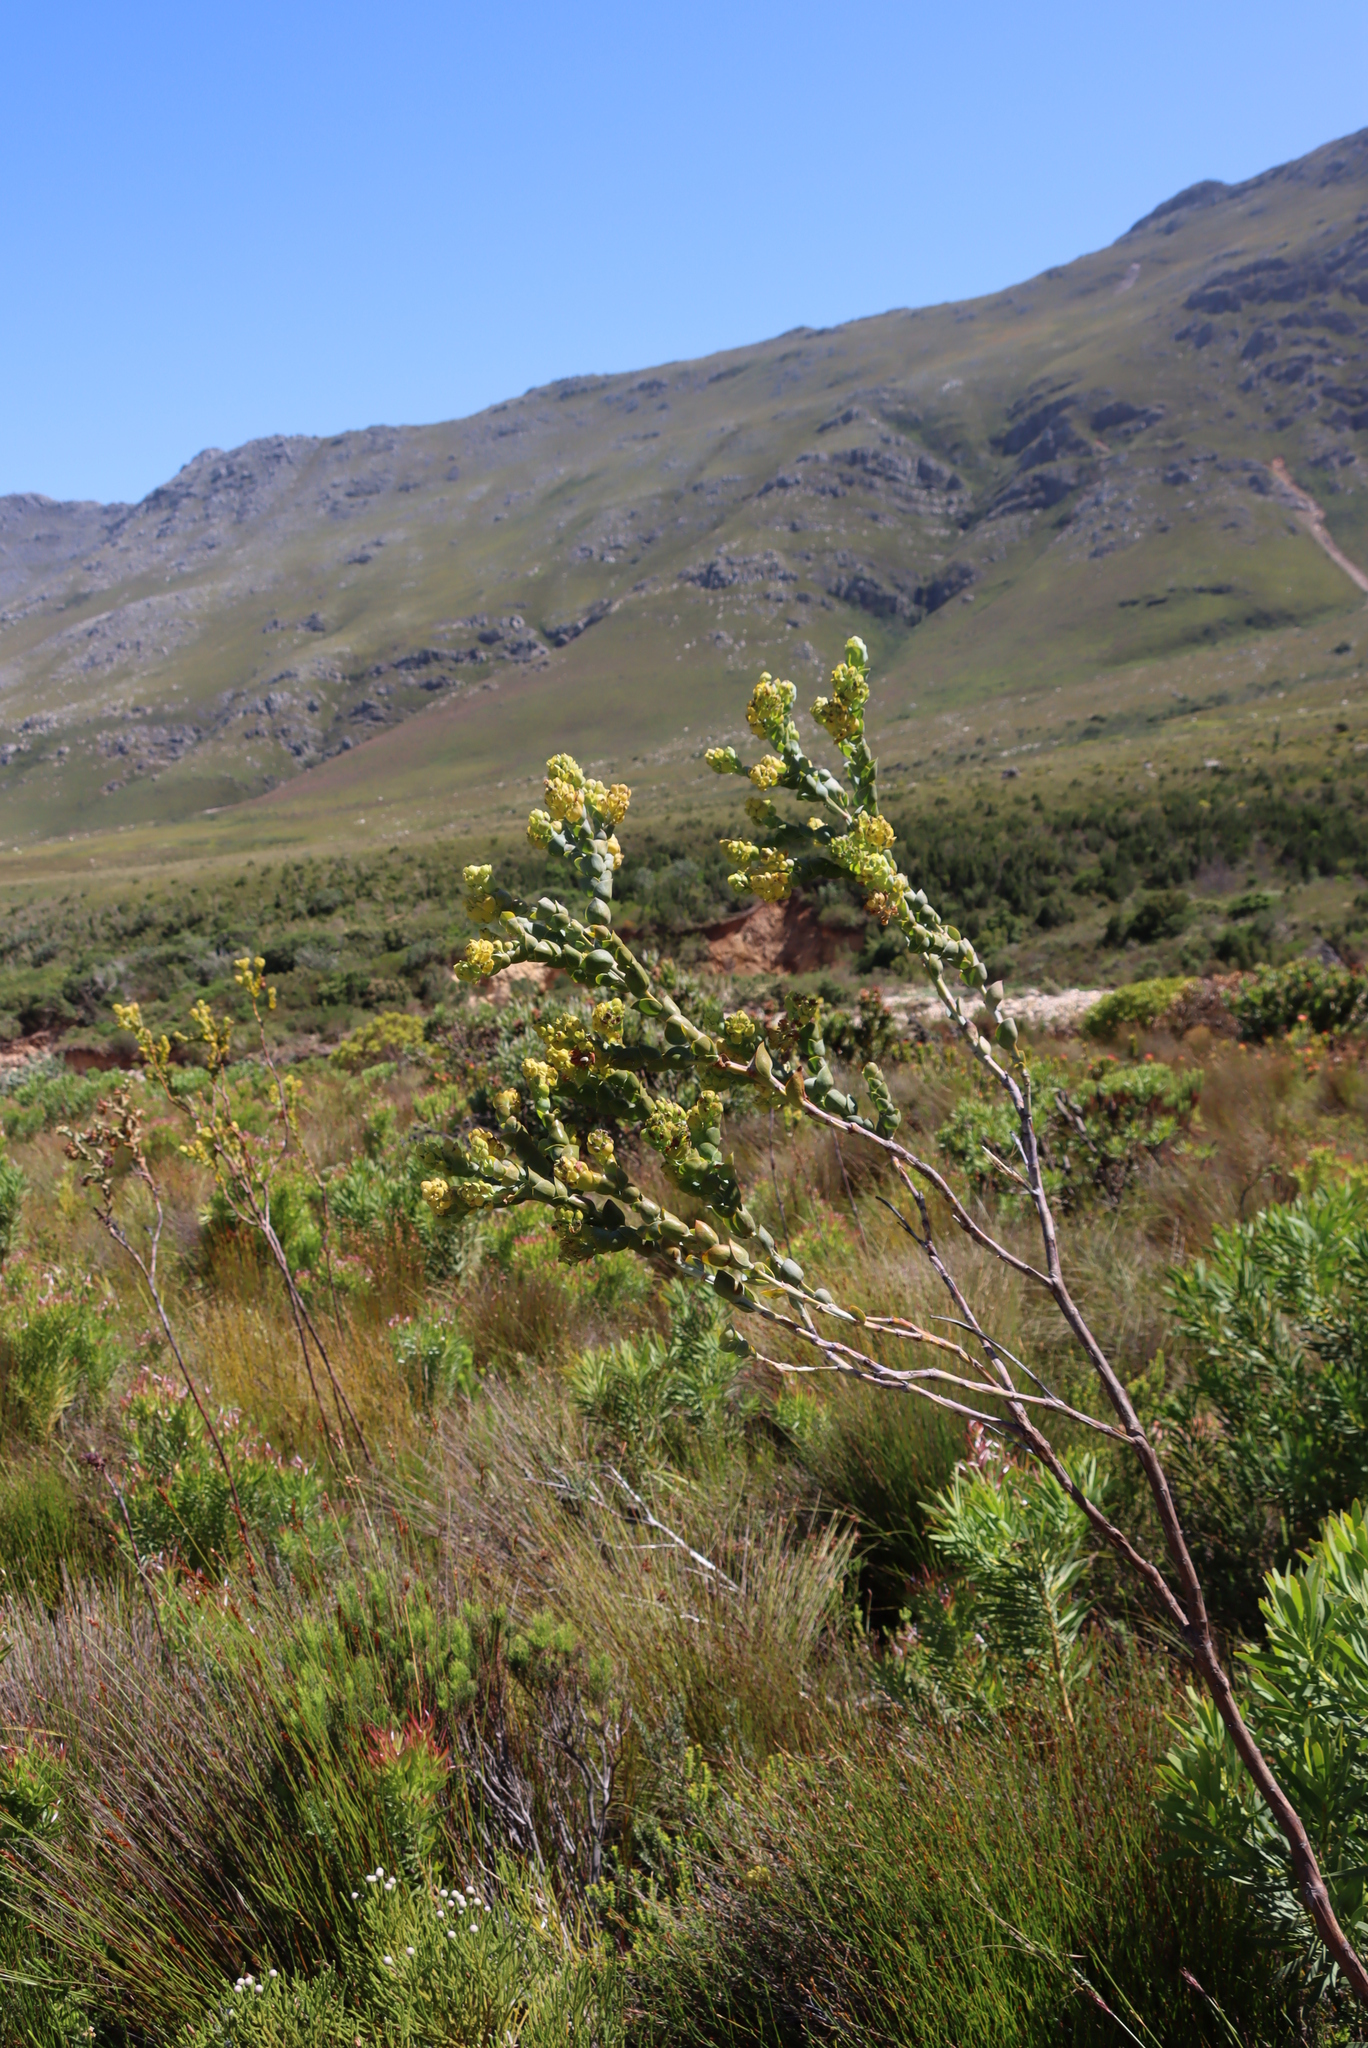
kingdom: Plantae
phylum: Tracheophyta
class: Magnoliopsida
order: Santalales
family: Thesiaceae
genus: Thesium
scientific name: Thesium euphorbioides
